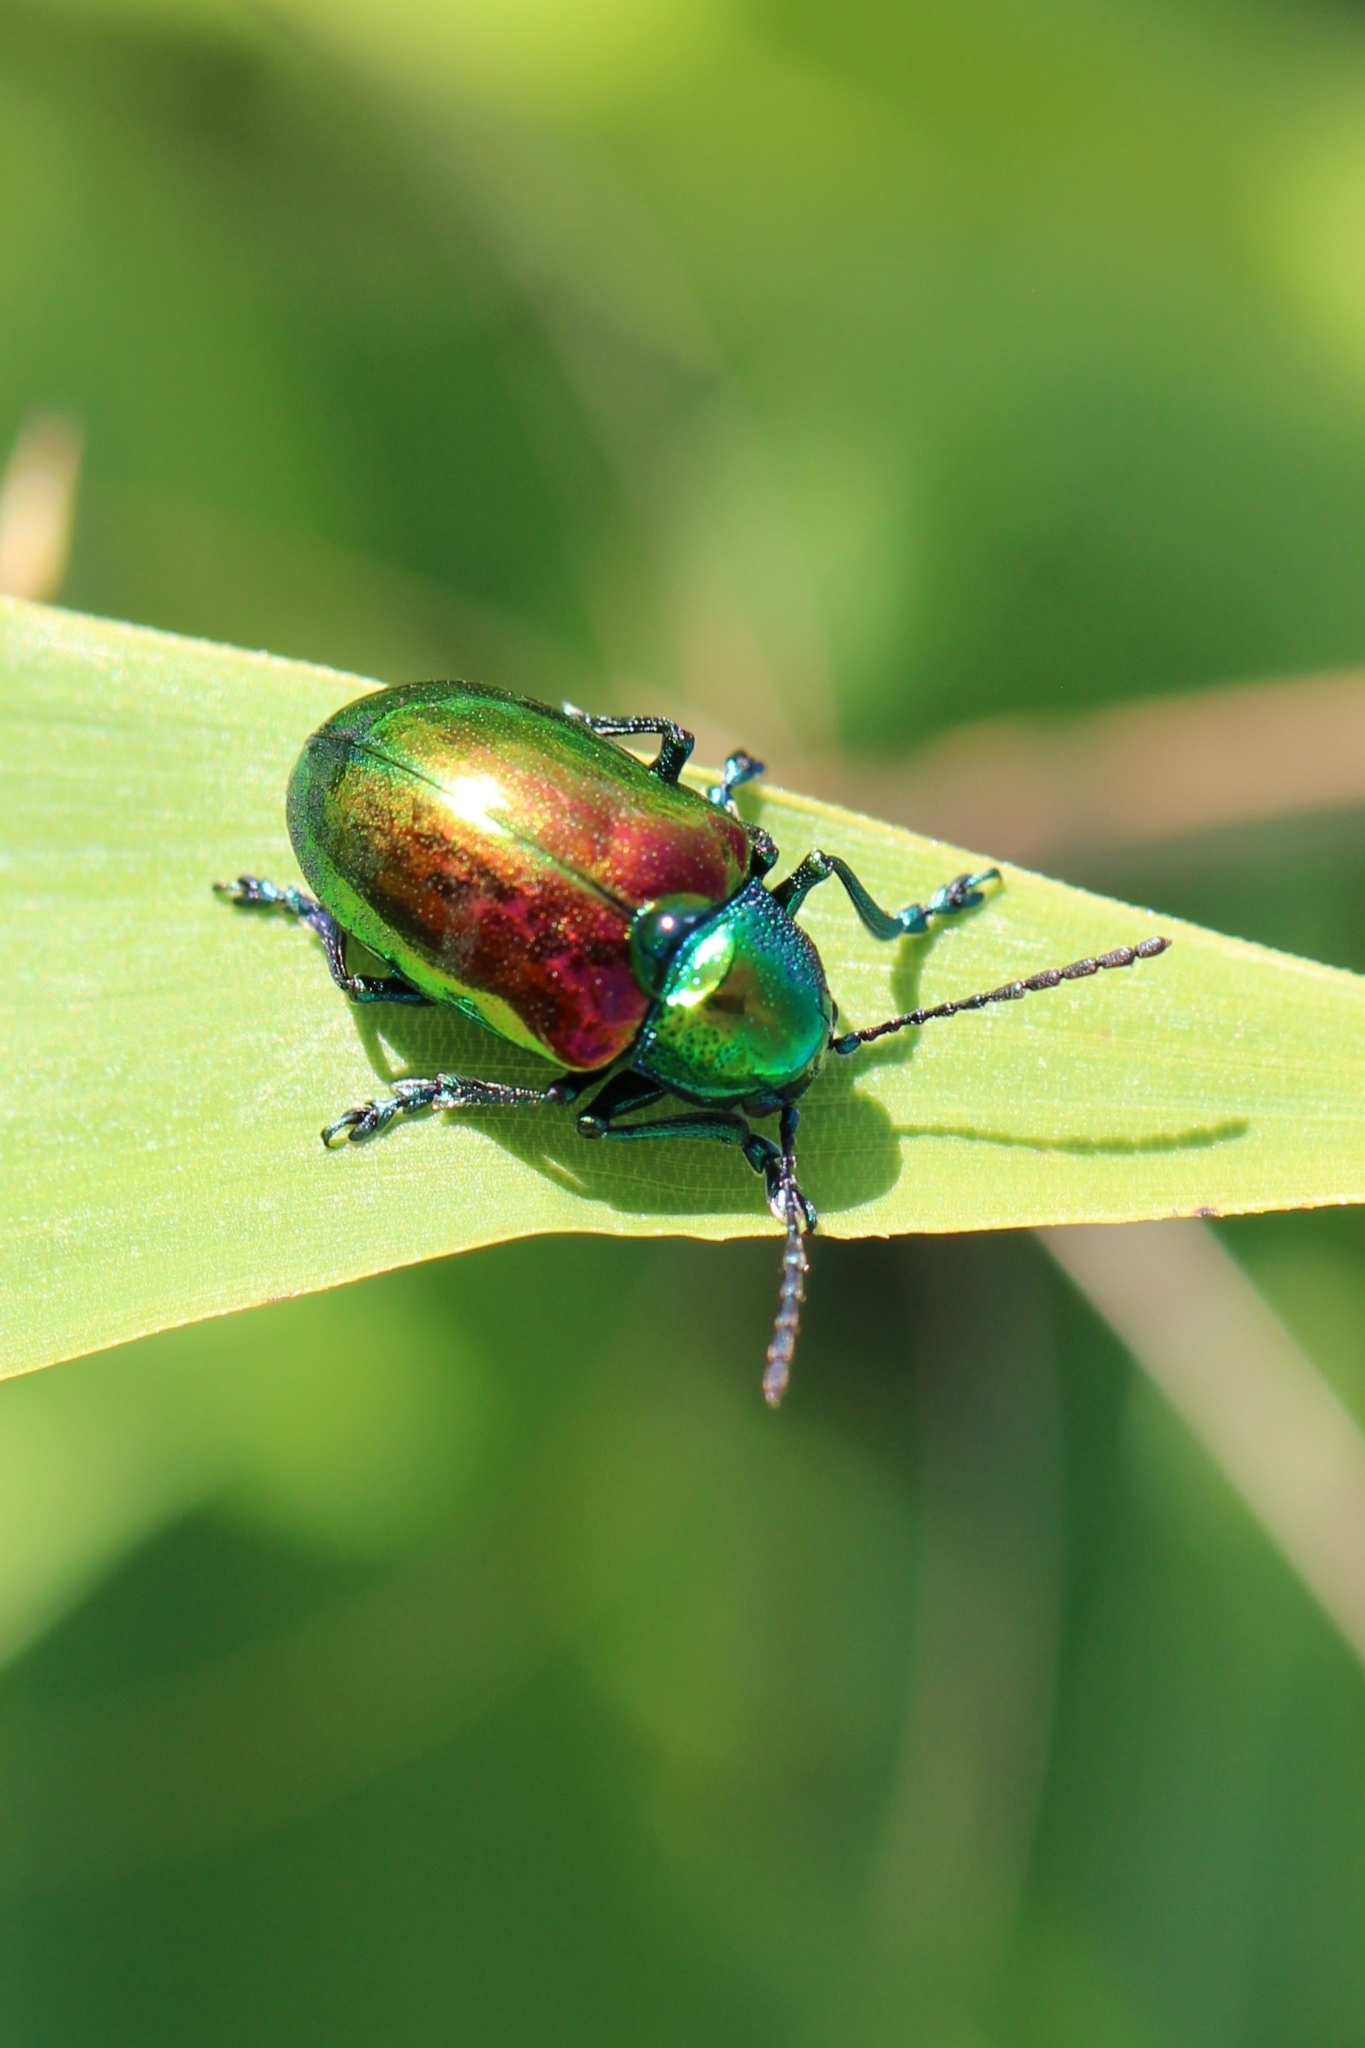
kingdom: Animalia
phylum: Arthropoda
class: Insecta
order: Coleoptera
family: Chrysomelidae
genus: Chrysochus
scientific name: Chrysochus auratus
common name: Dogbane leaf beetle
